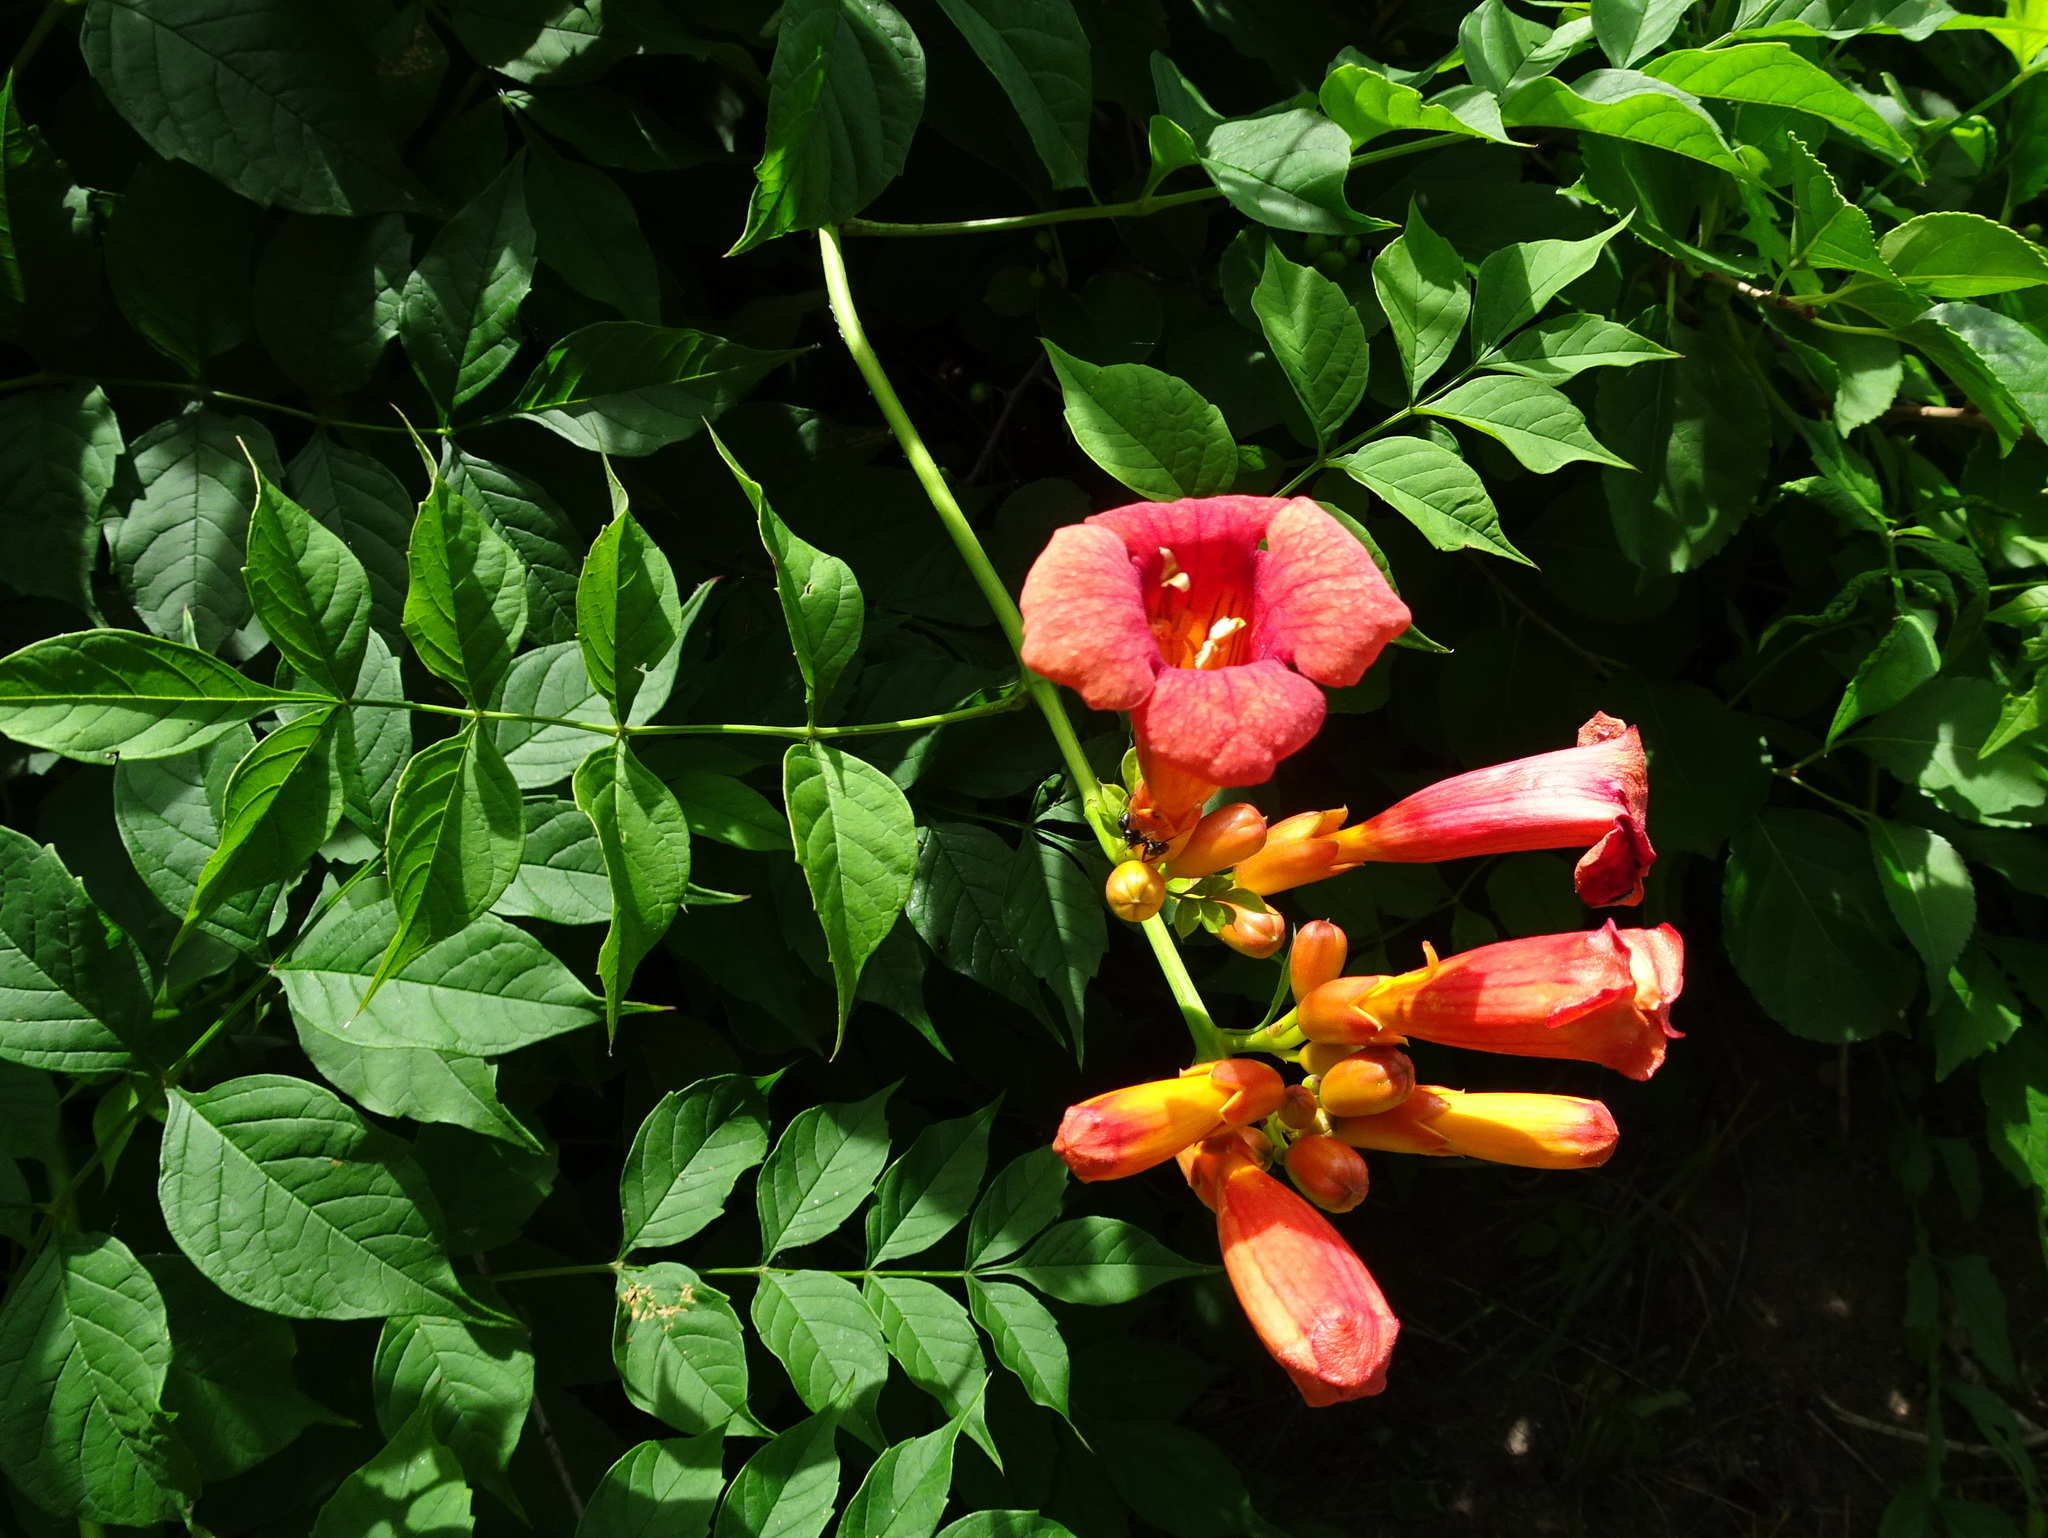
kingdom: Plantae
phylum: Tracheophyta
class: Magnoliopsida
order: Lamiales
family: Bignoniaceae
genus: Campsis
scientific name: Campsis radicans
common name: Trumpet-creeper
